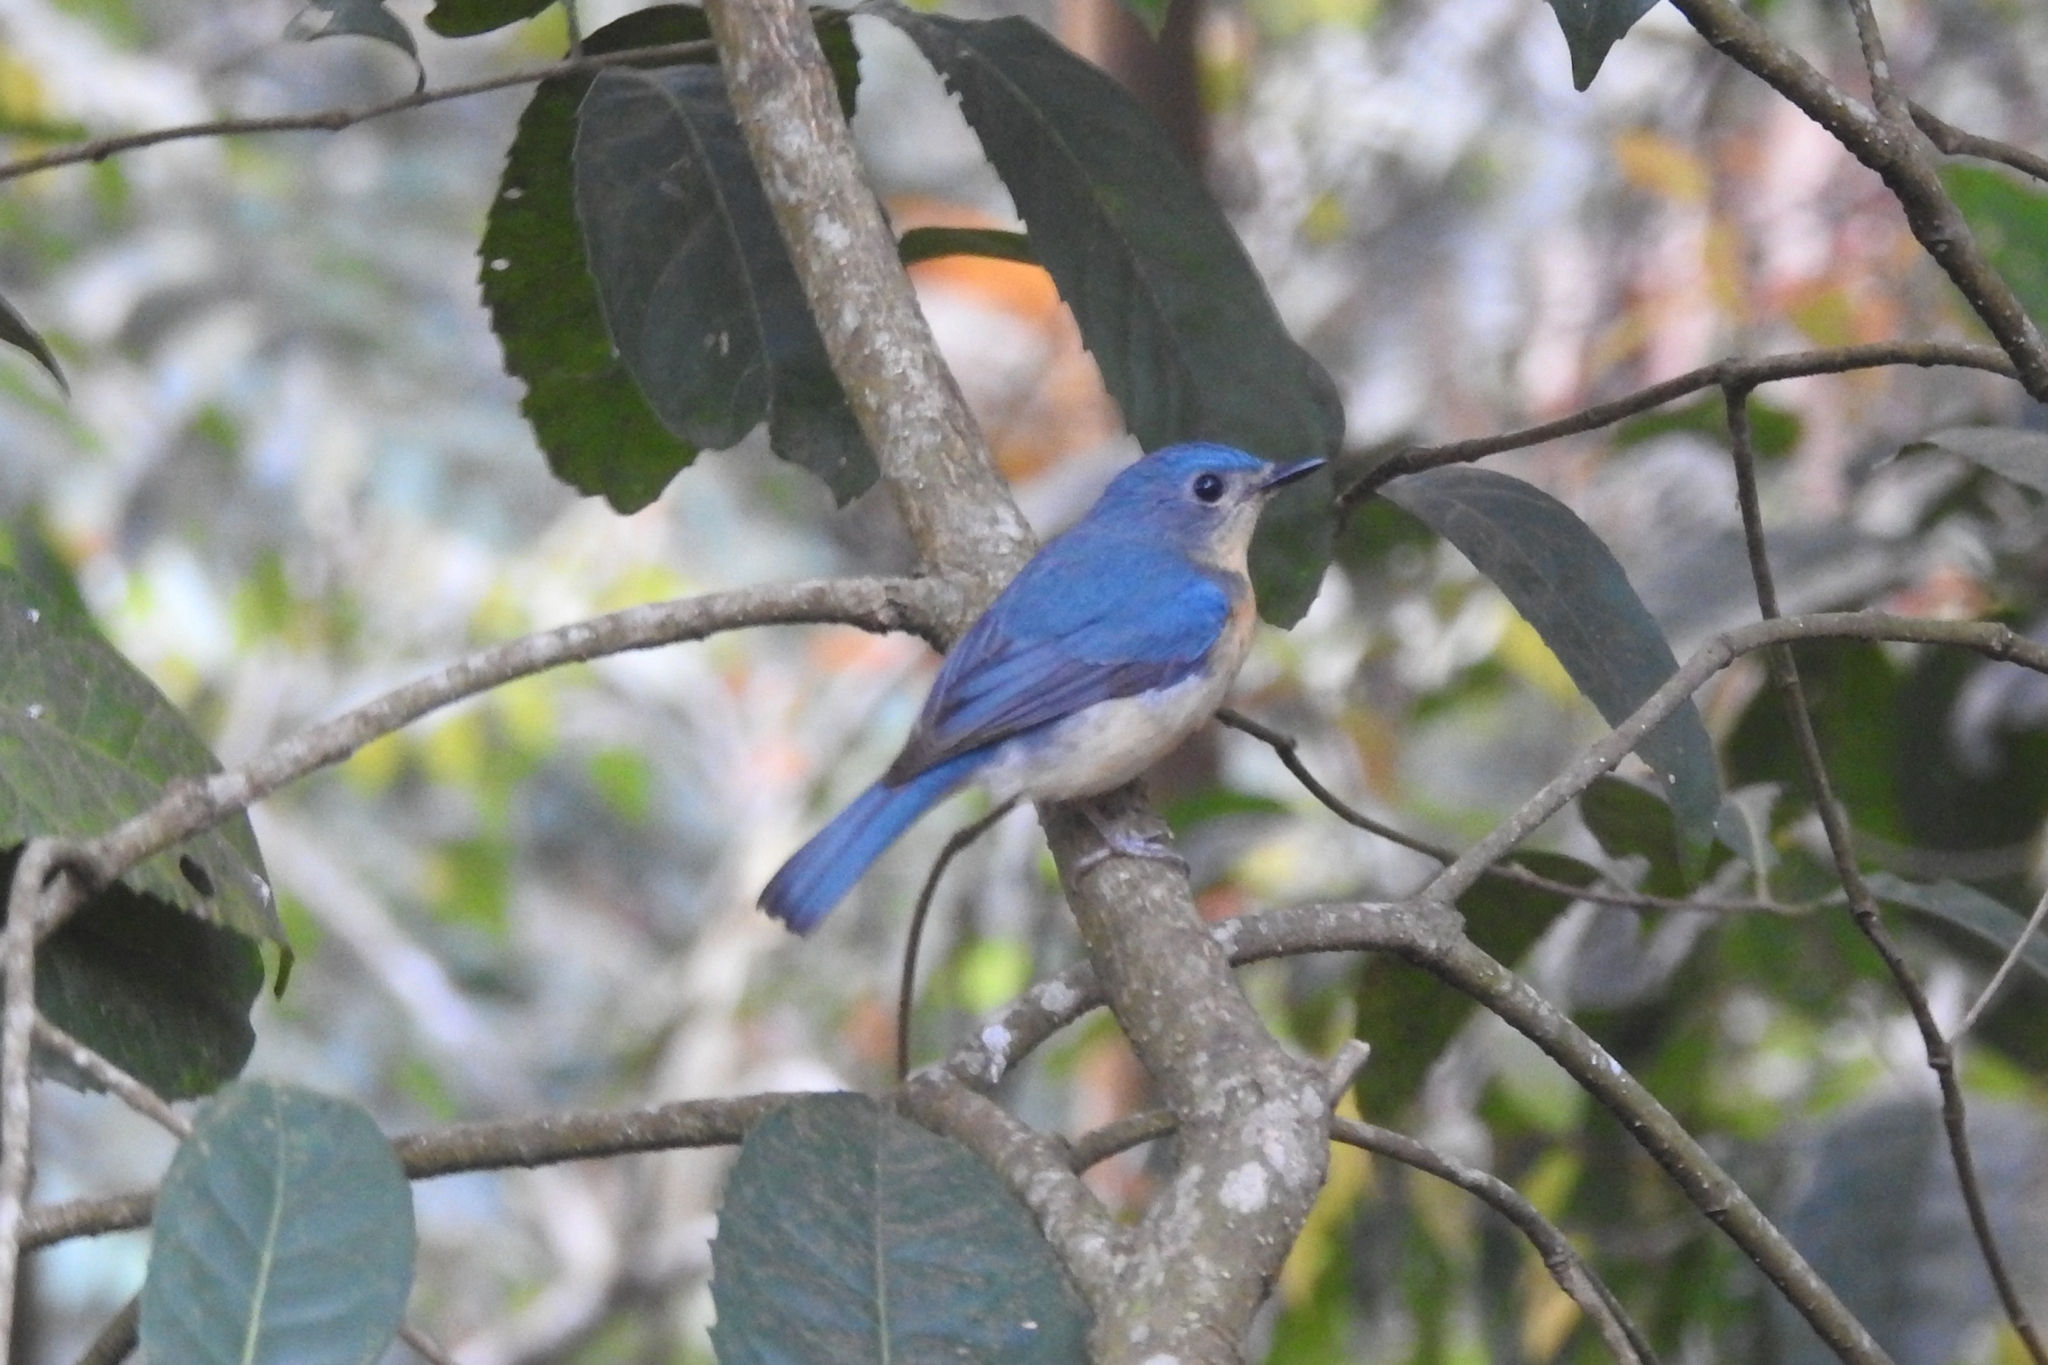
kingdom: Animalia
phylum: Chordata
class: Aves
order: Passeriformes
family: Muscicapidae
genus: Cyornis
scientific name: Cyornis tickelliae
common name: Tickell's blue flycatcher
